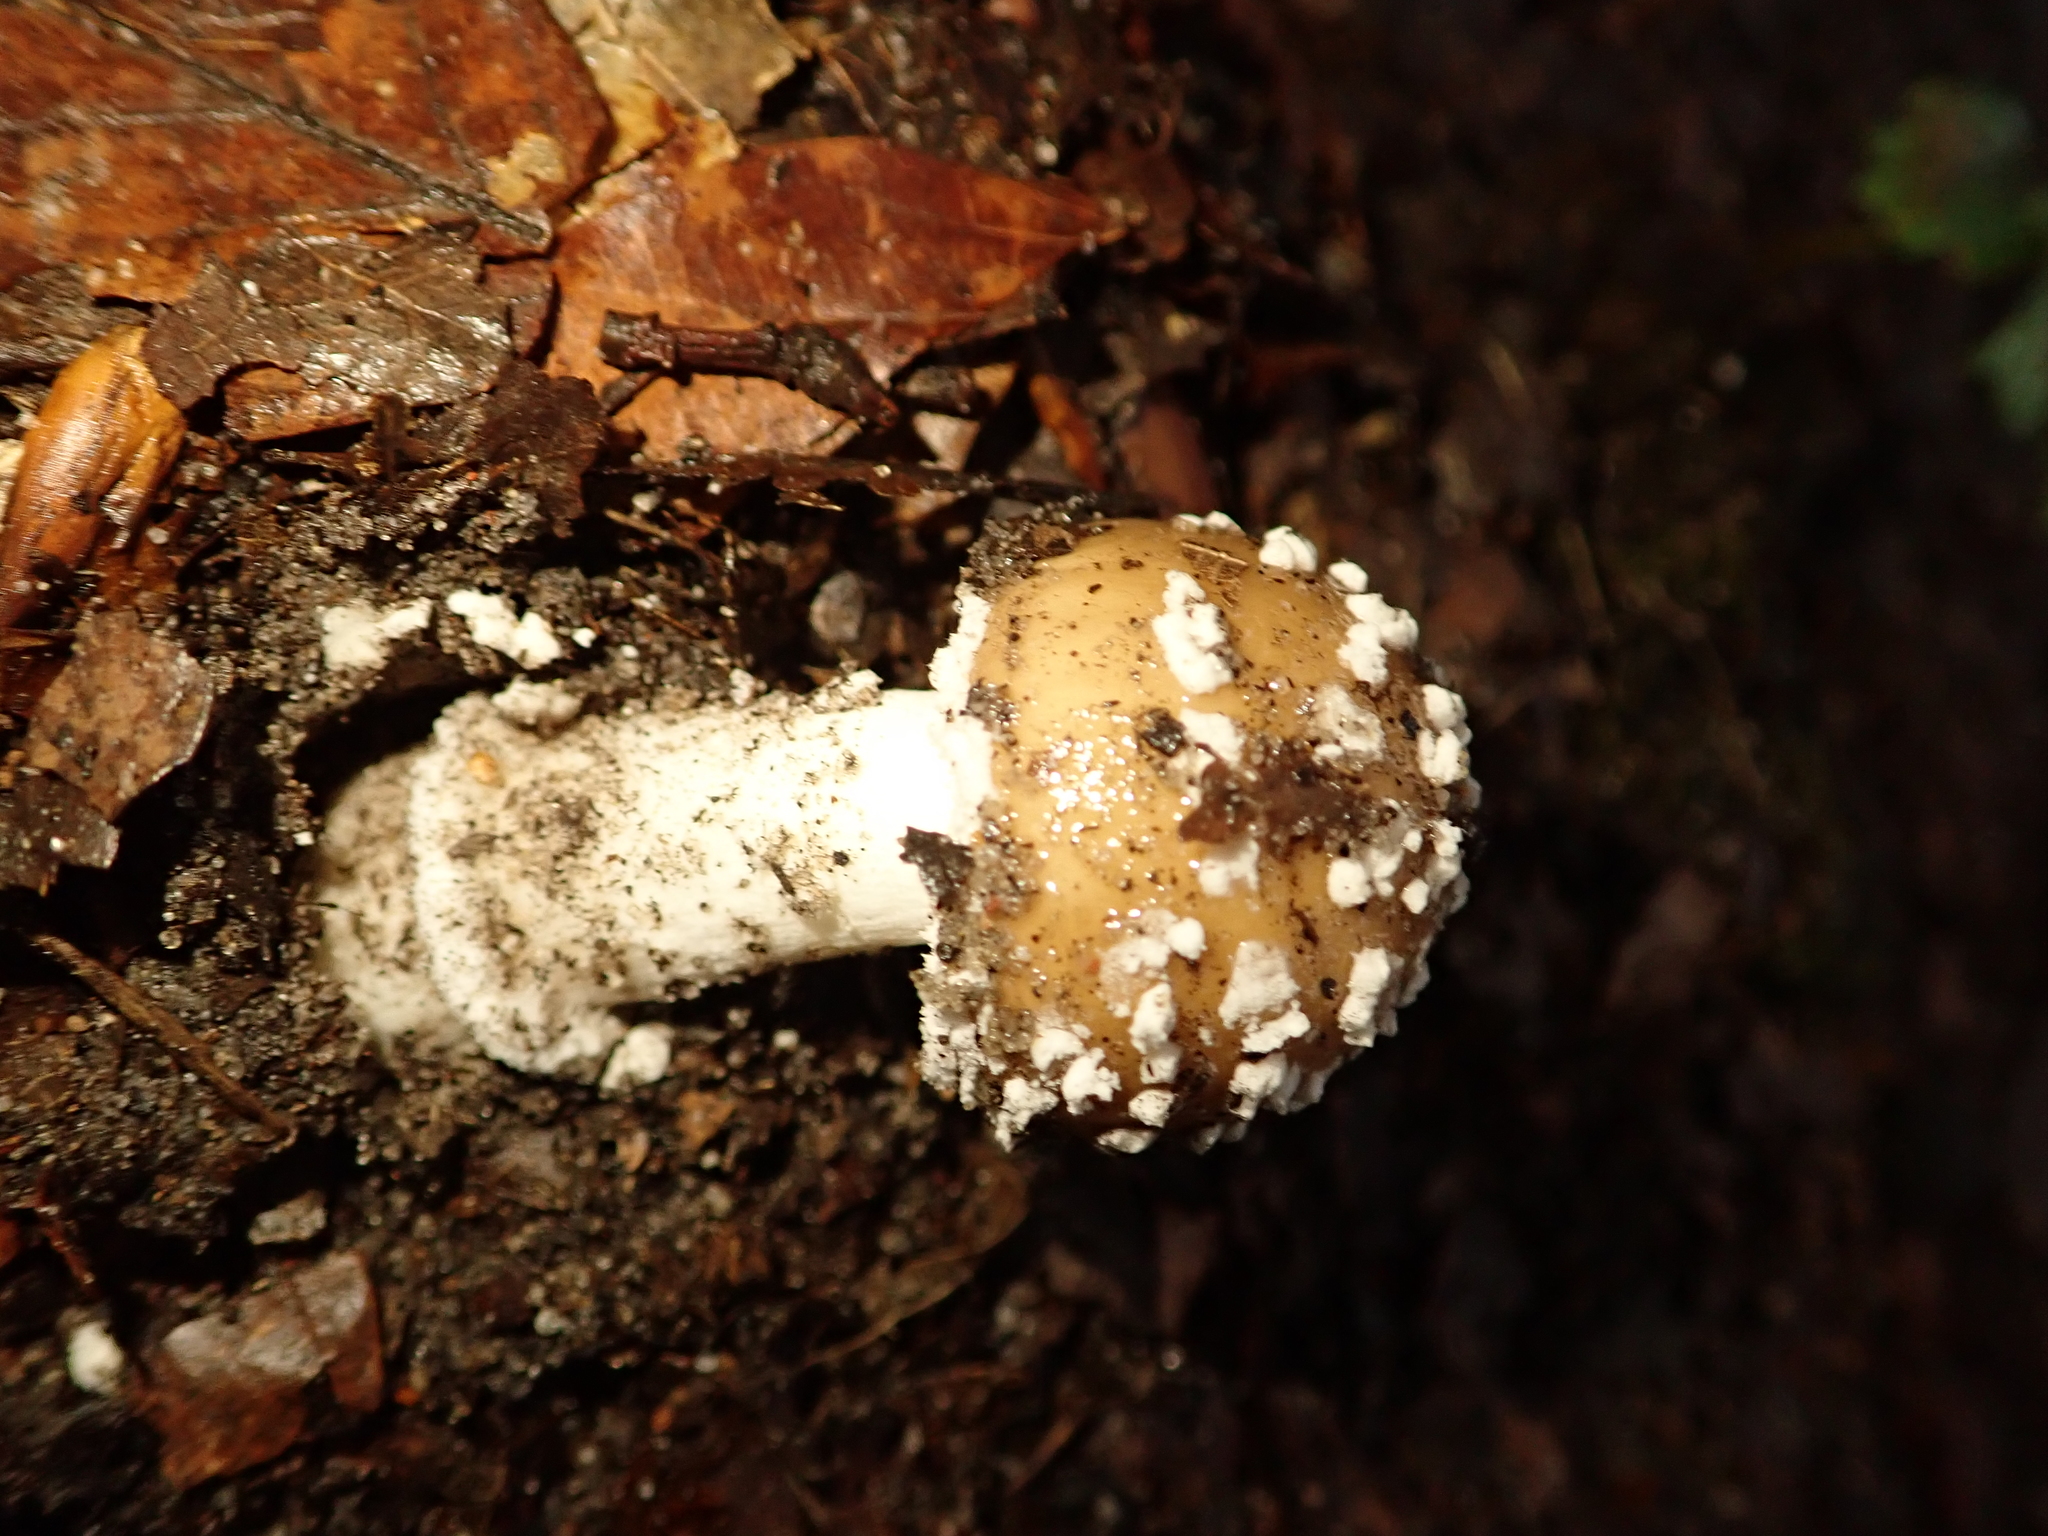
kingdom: Fungi
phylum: Basidiomycota
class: Agaricomycetes
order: Agaricales
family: Amanitaceae
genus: Amanita
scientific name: Amanita pantherina
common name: Panthercap
